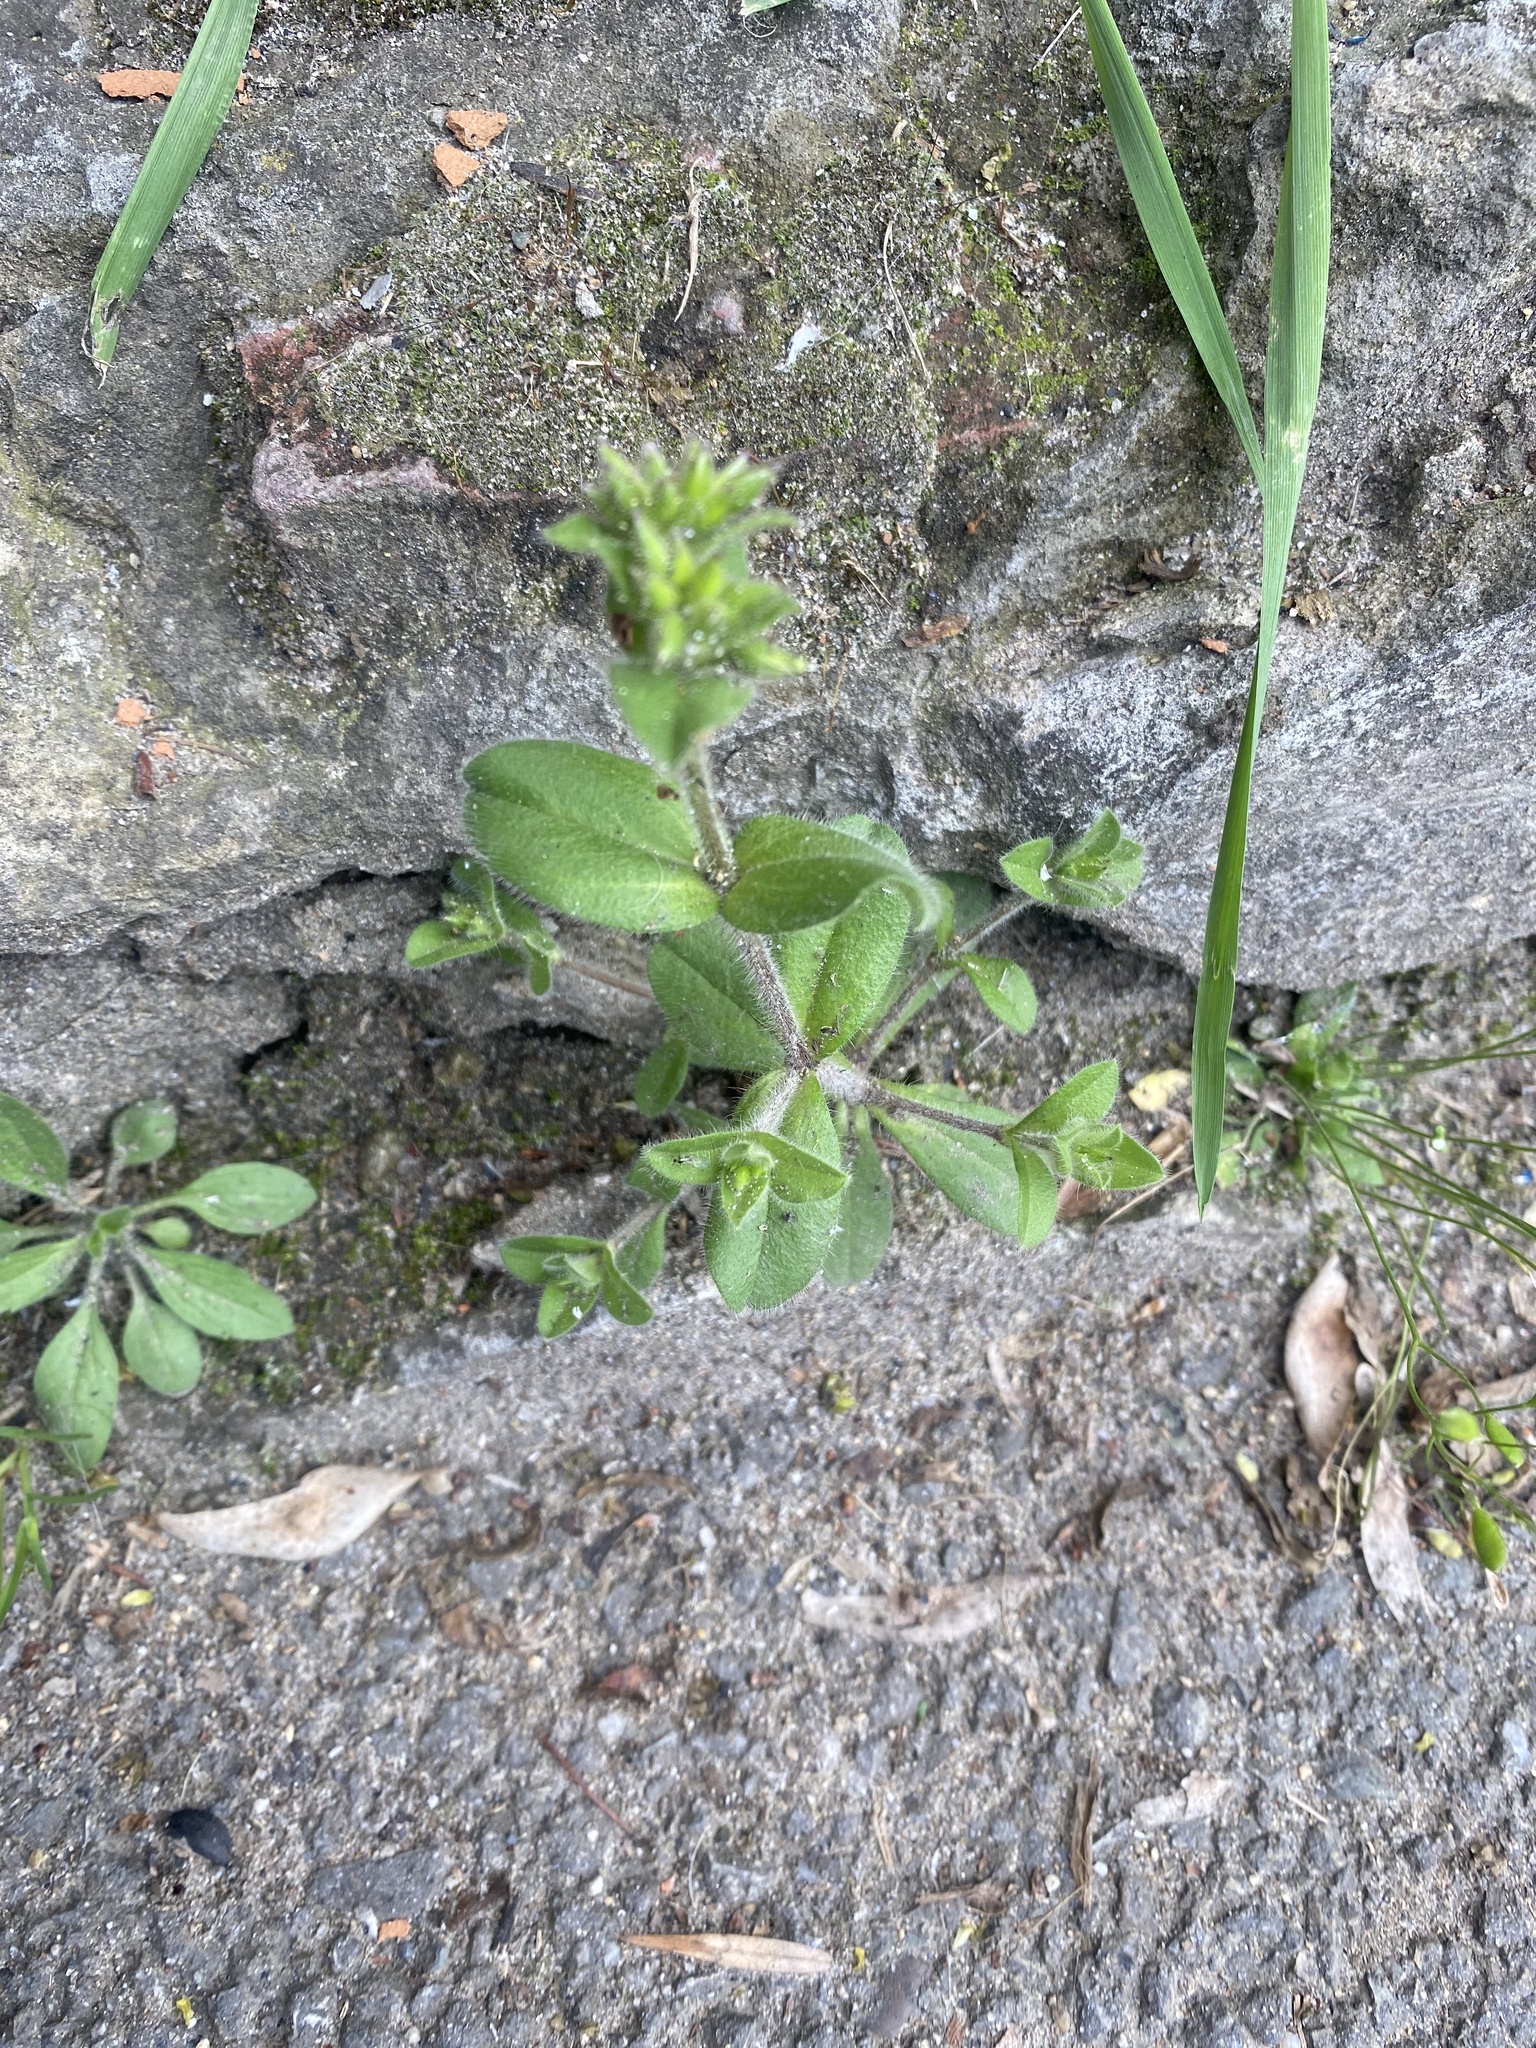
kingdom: Plantae
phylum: Tracheophyta
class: Magnoliopsida
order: Caryophyllales
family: Caryophyllaceae
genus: Cerastium
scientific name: Cerastium glomeratum
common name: Sticky chickweed
